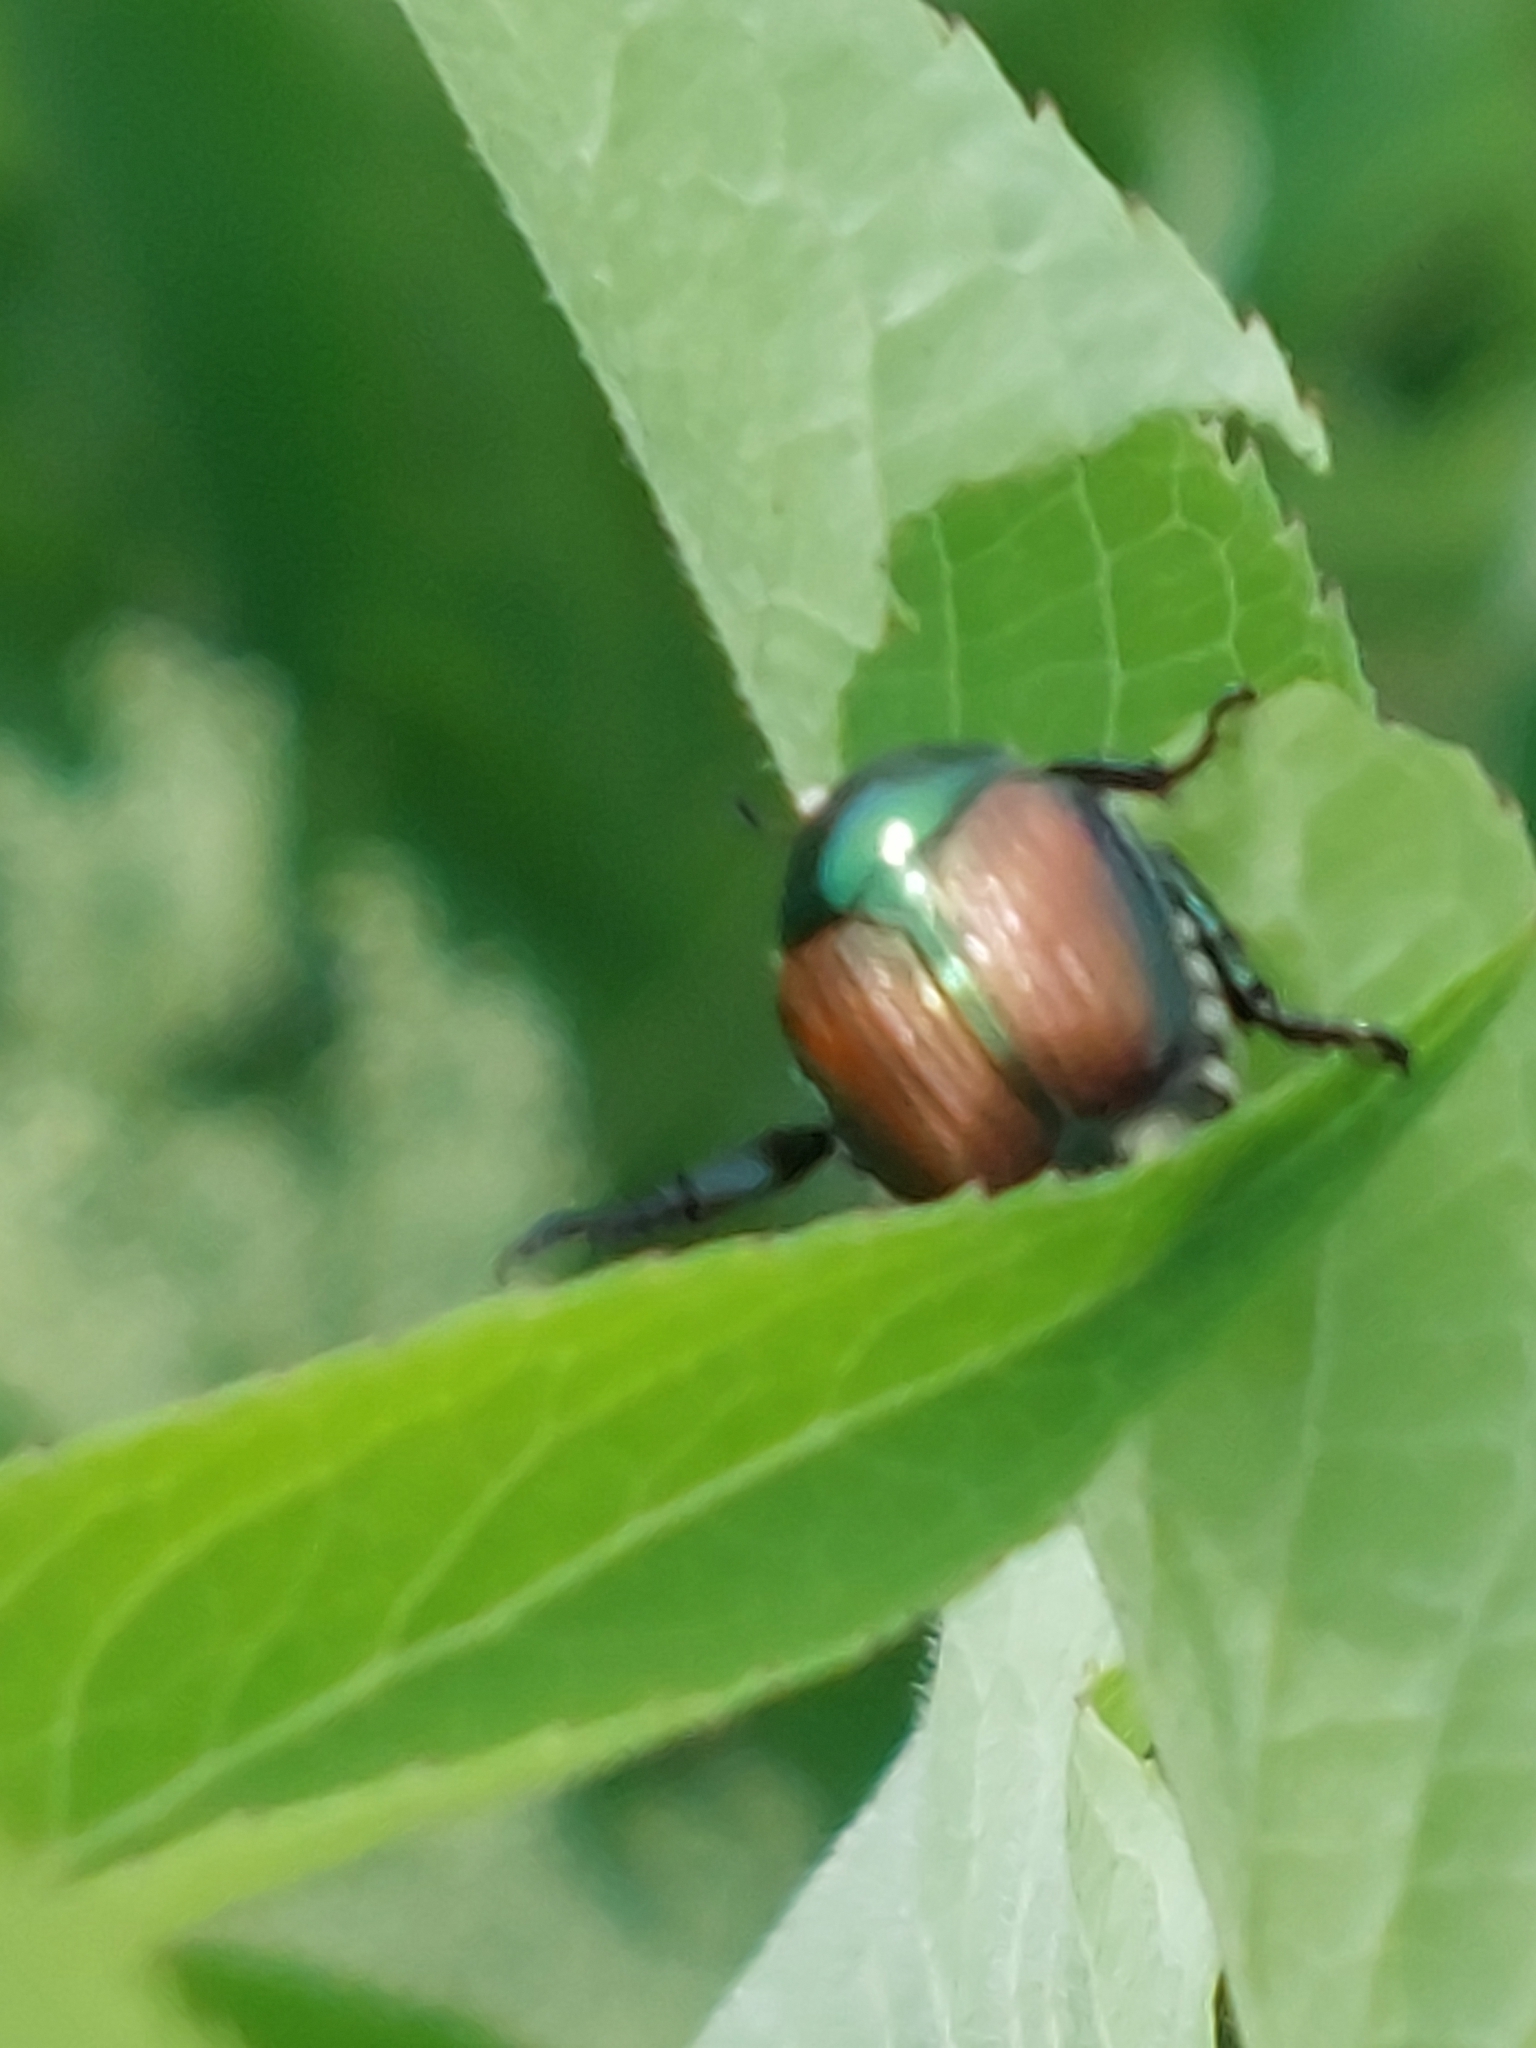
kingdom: Animalia
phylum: Arthropoda
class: Insecta
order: Coleoptera
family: Scarabaeidae
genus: Popillia
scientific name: Popillia japonica
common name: Japanese beetle
